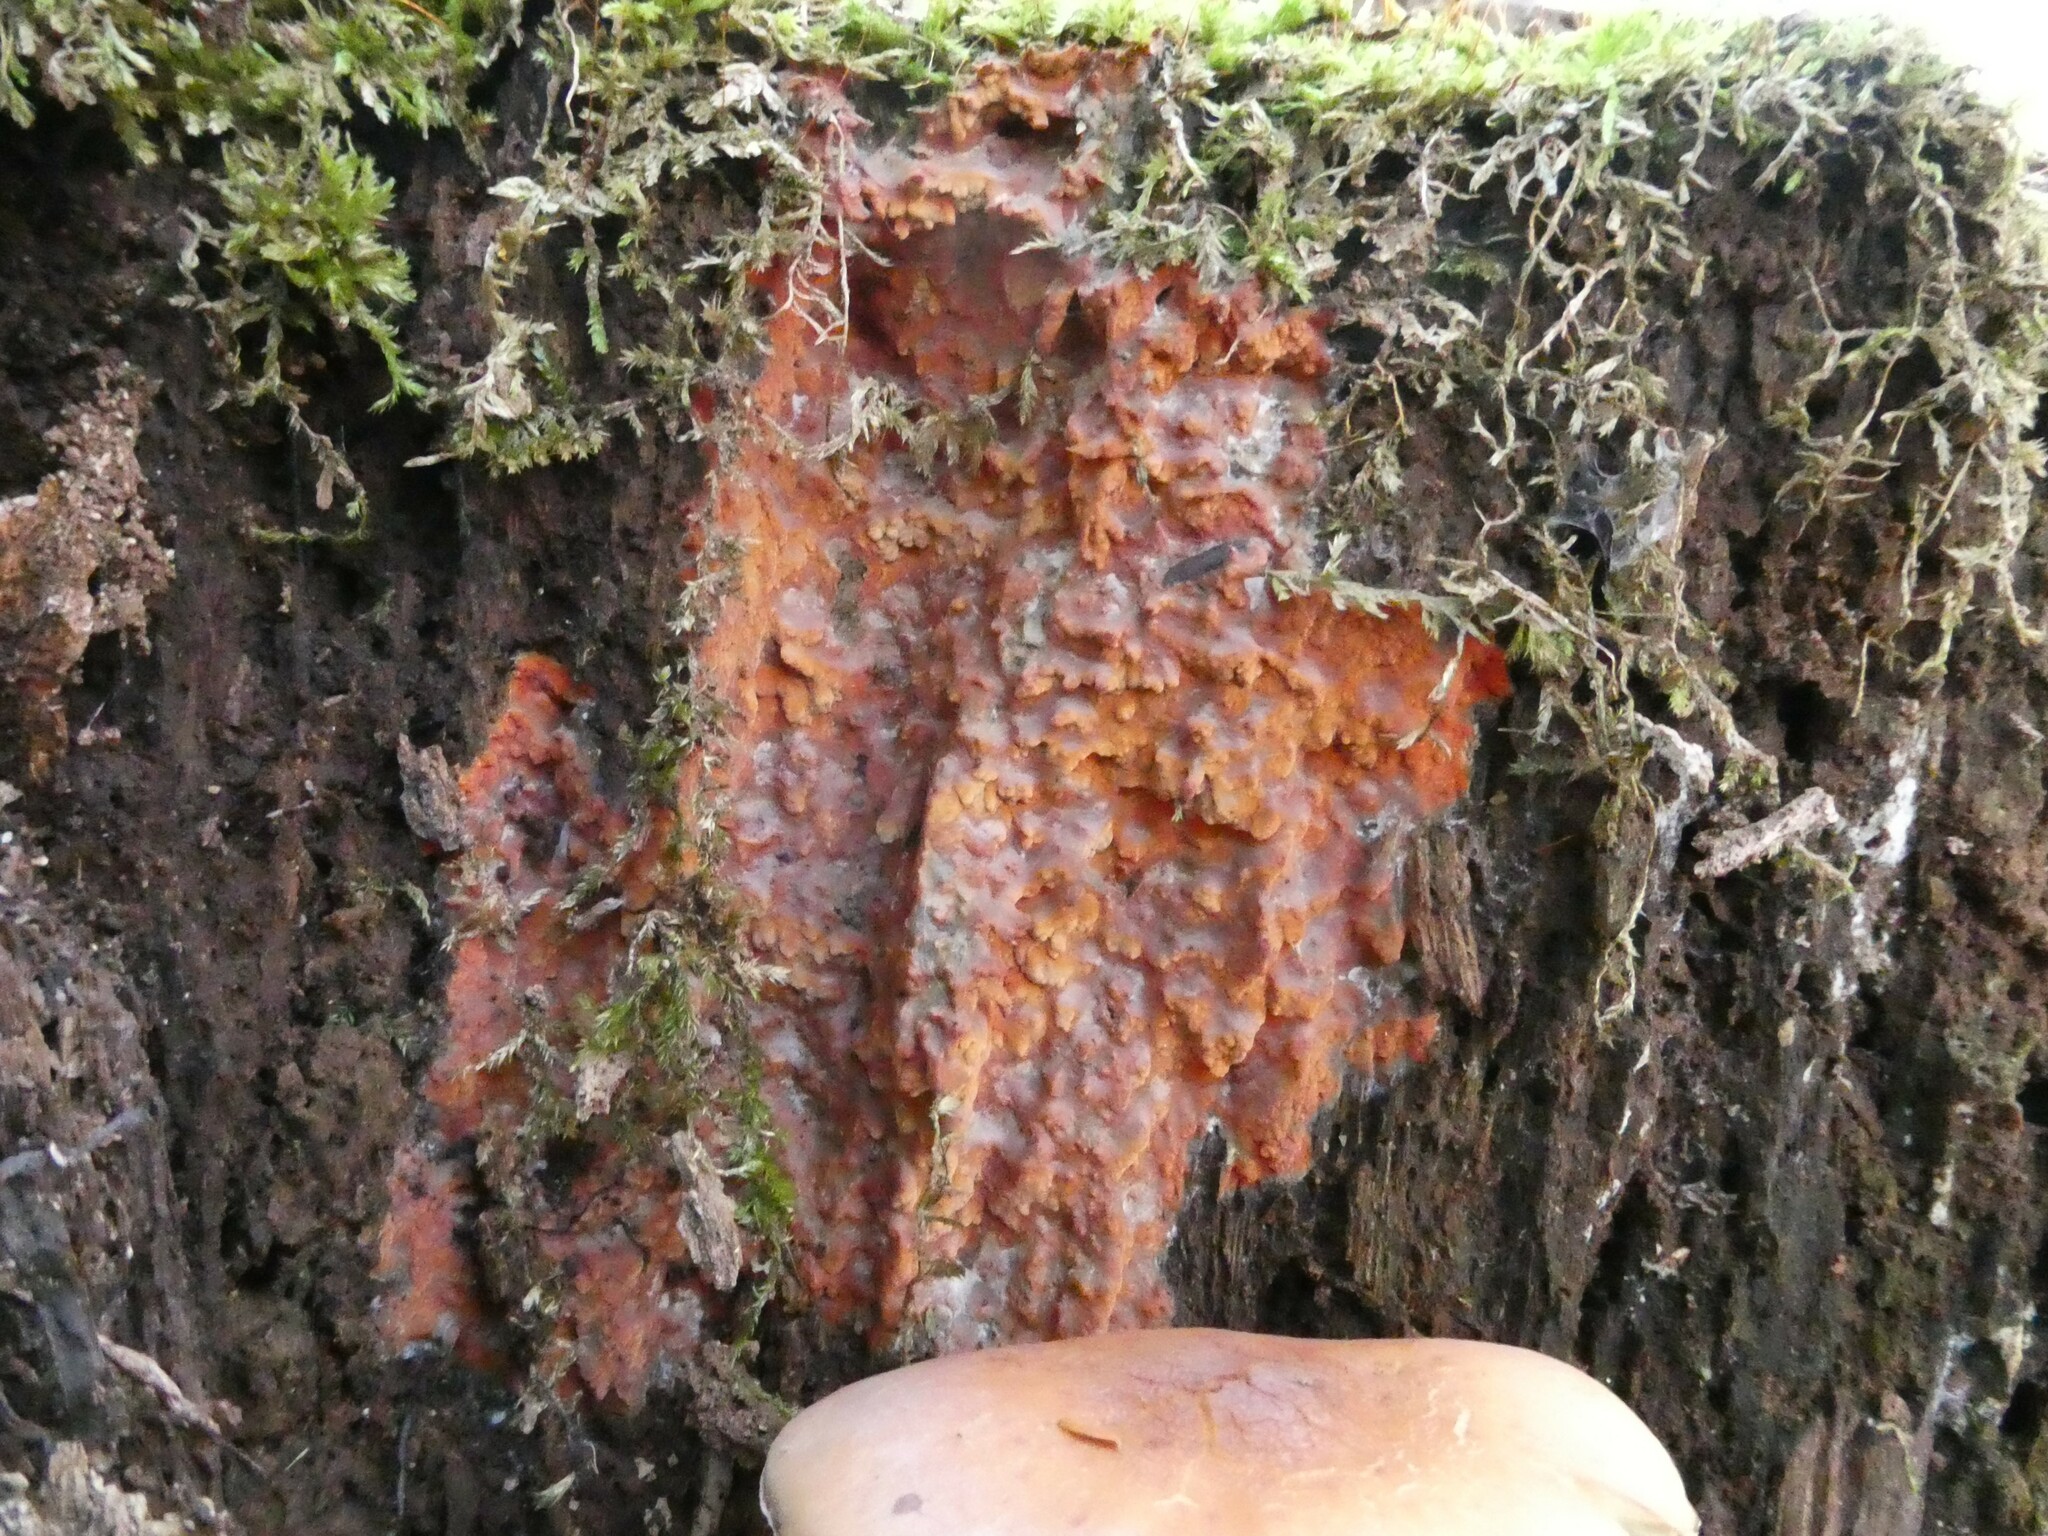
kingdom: Fungi
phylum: Basidiomycota
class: Agaricomycetes
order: Polyporales
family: Meruliaceae
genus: Phlebia
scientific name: Phlebia coccineofulva
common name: Scarlet waxcrust
